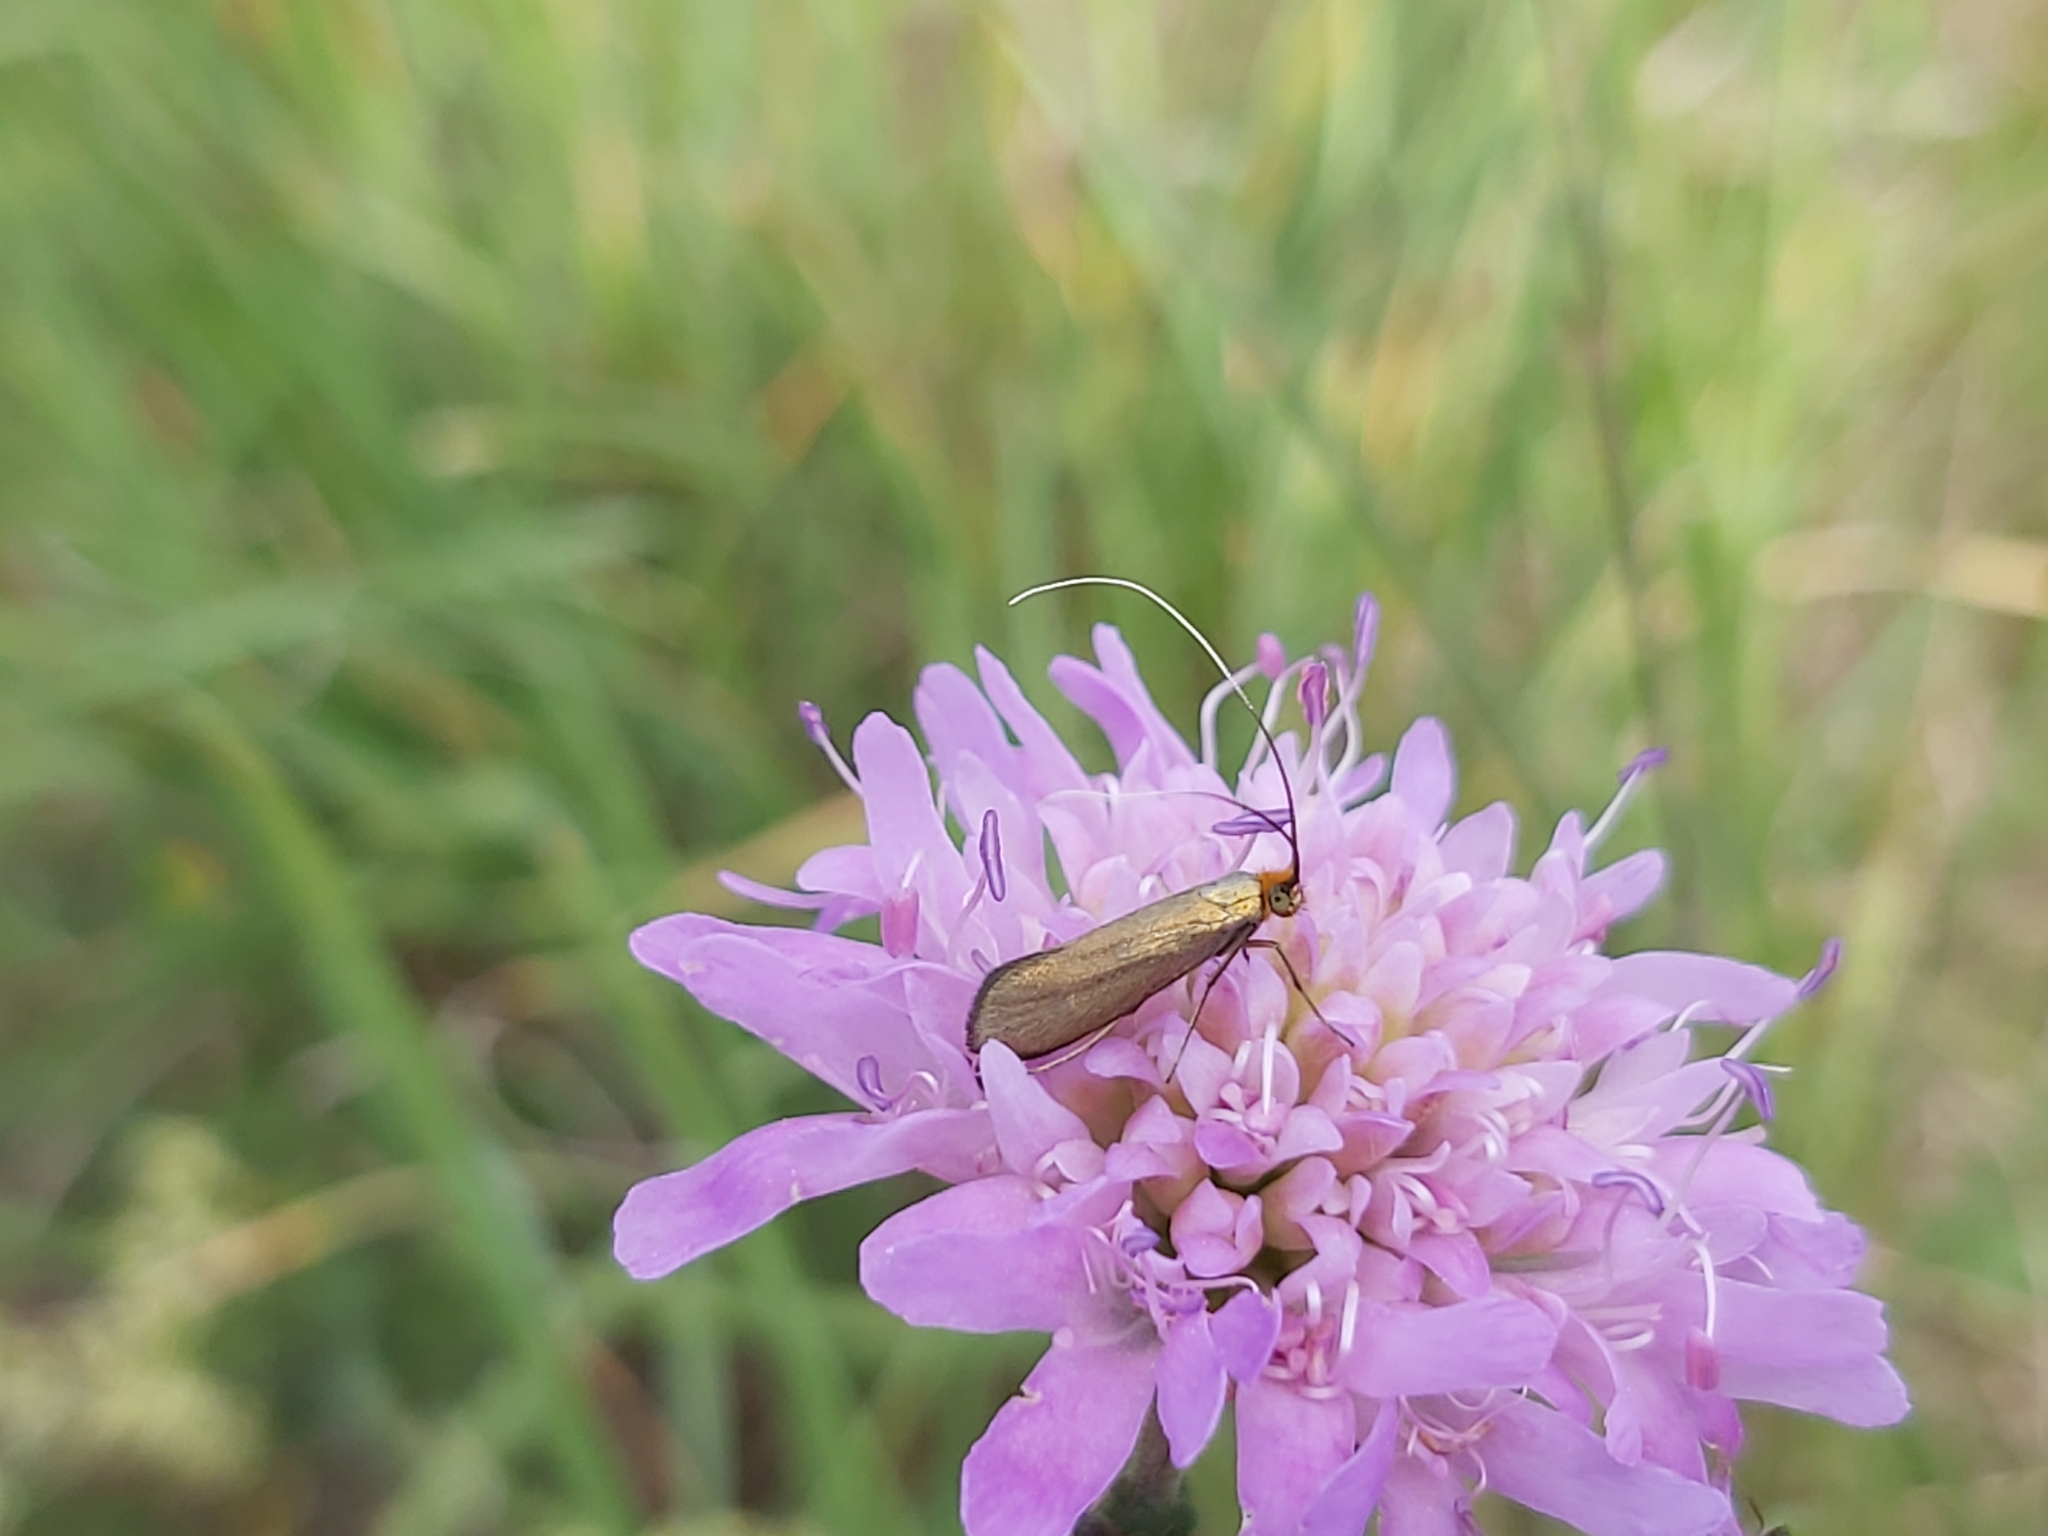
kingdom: Animalia
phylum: Arthropoda
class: Insecta
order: Lepidoptera
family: Adelidae
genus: Nemophora
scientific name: Nemophora metallica
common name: Brassy long-horn
